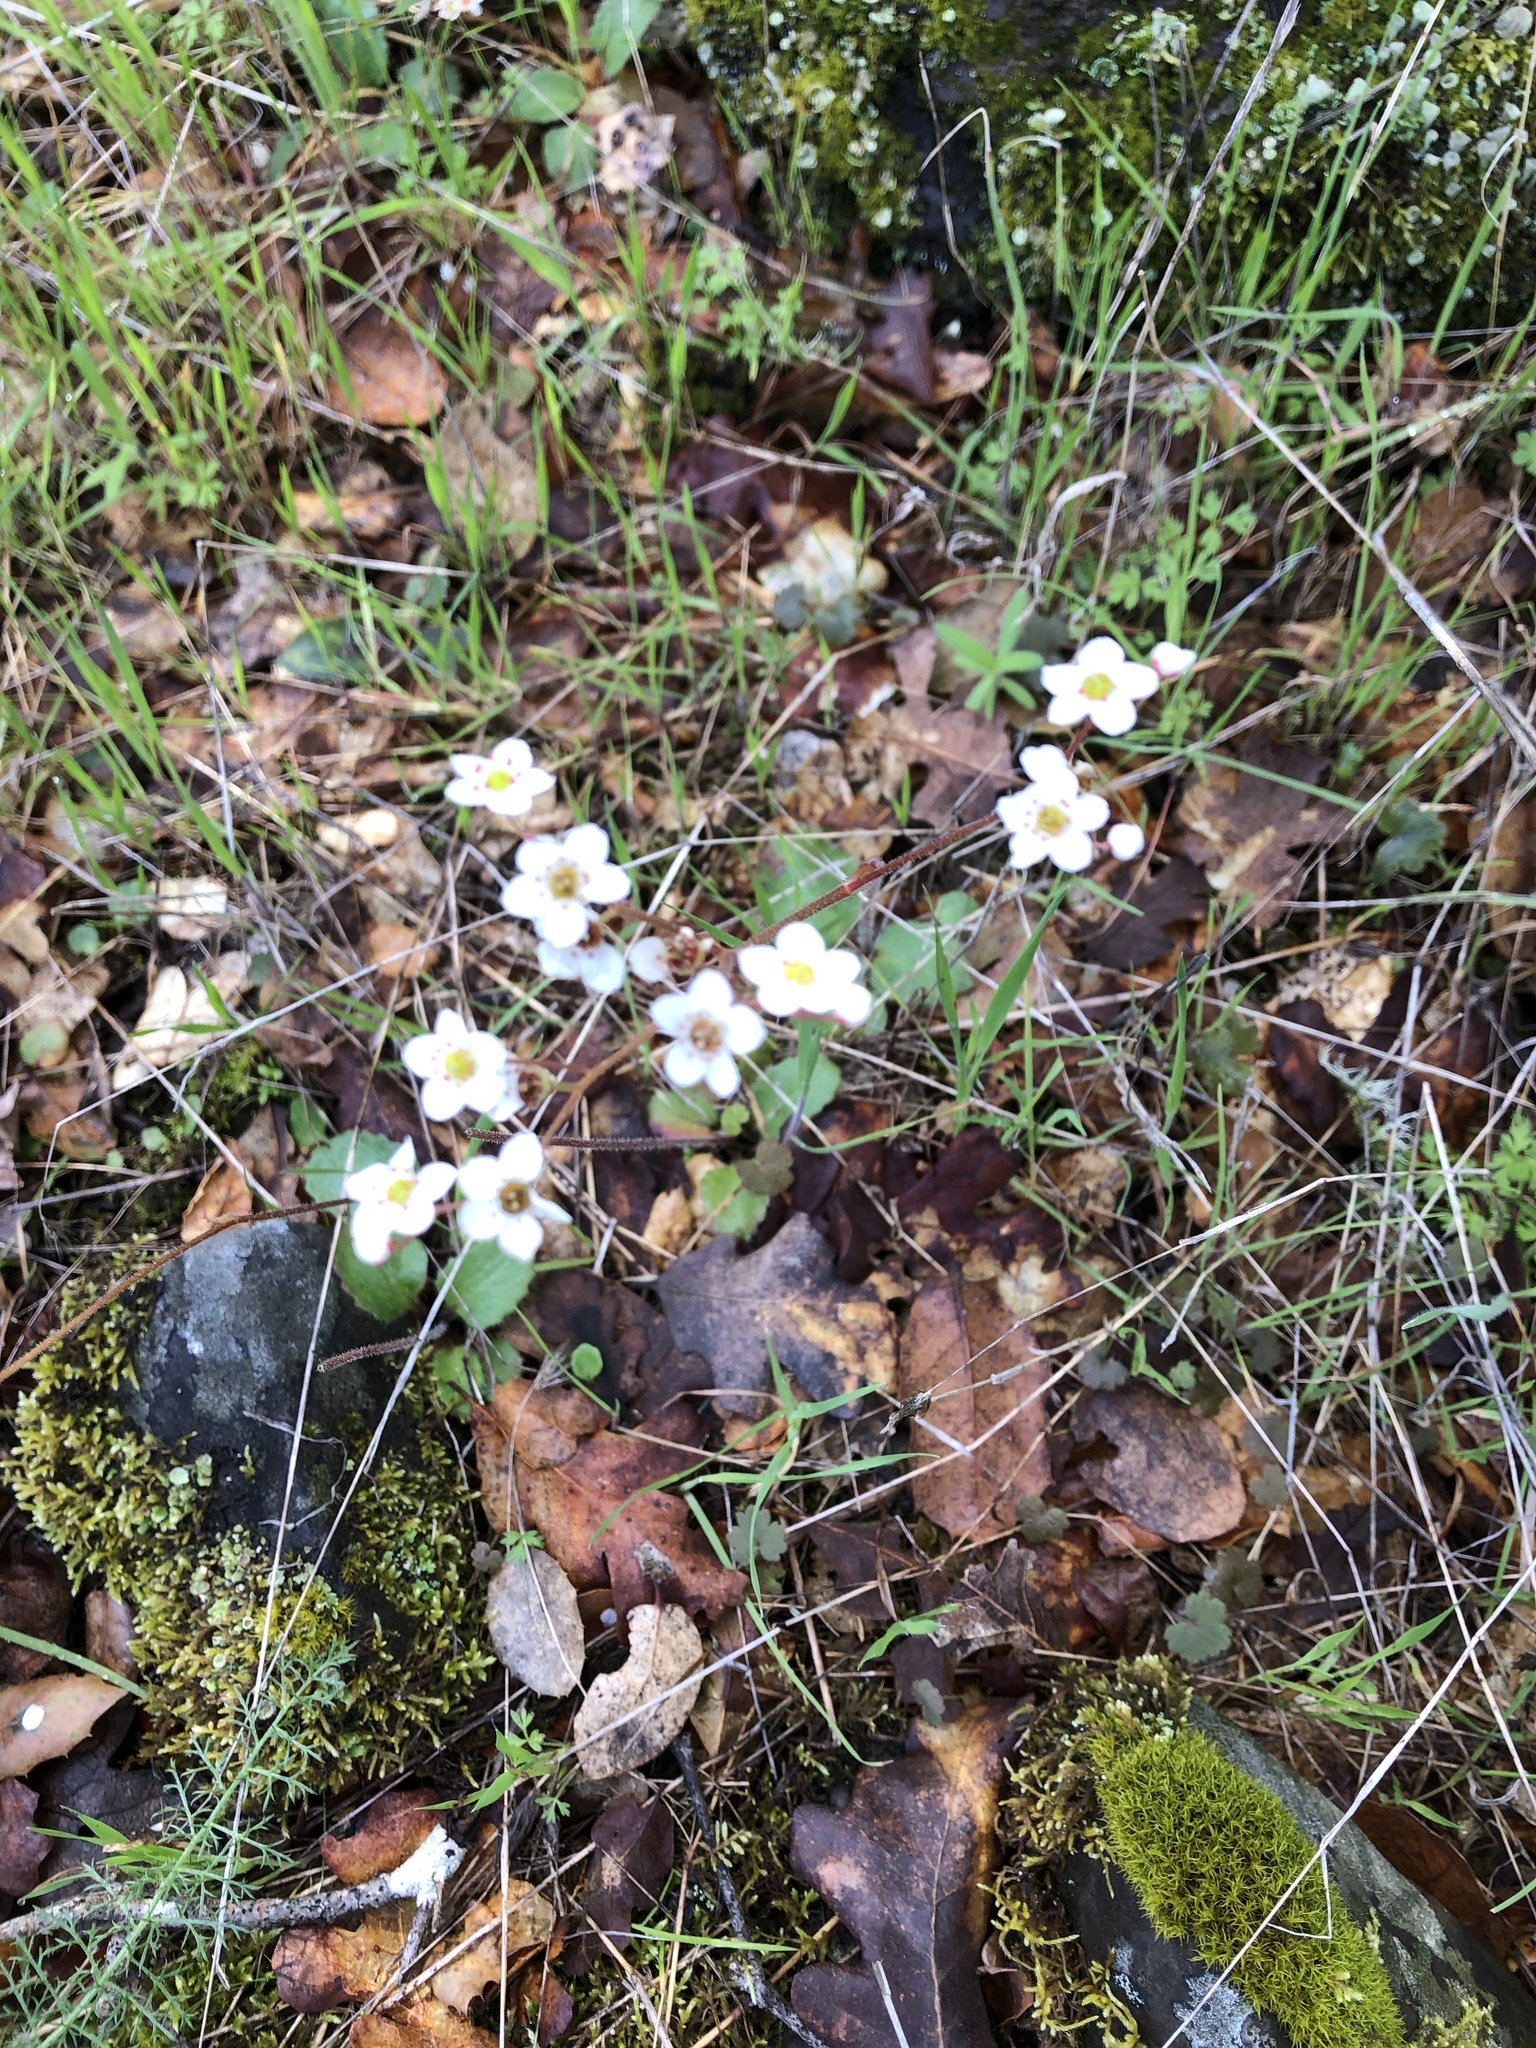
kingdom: Plantae
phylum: Tracheophyta
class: Magnoliopsida
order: Saxifragales
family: Saxifragaceae
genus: Micranthes
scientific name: Micranthes californica
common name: California saxifrage
